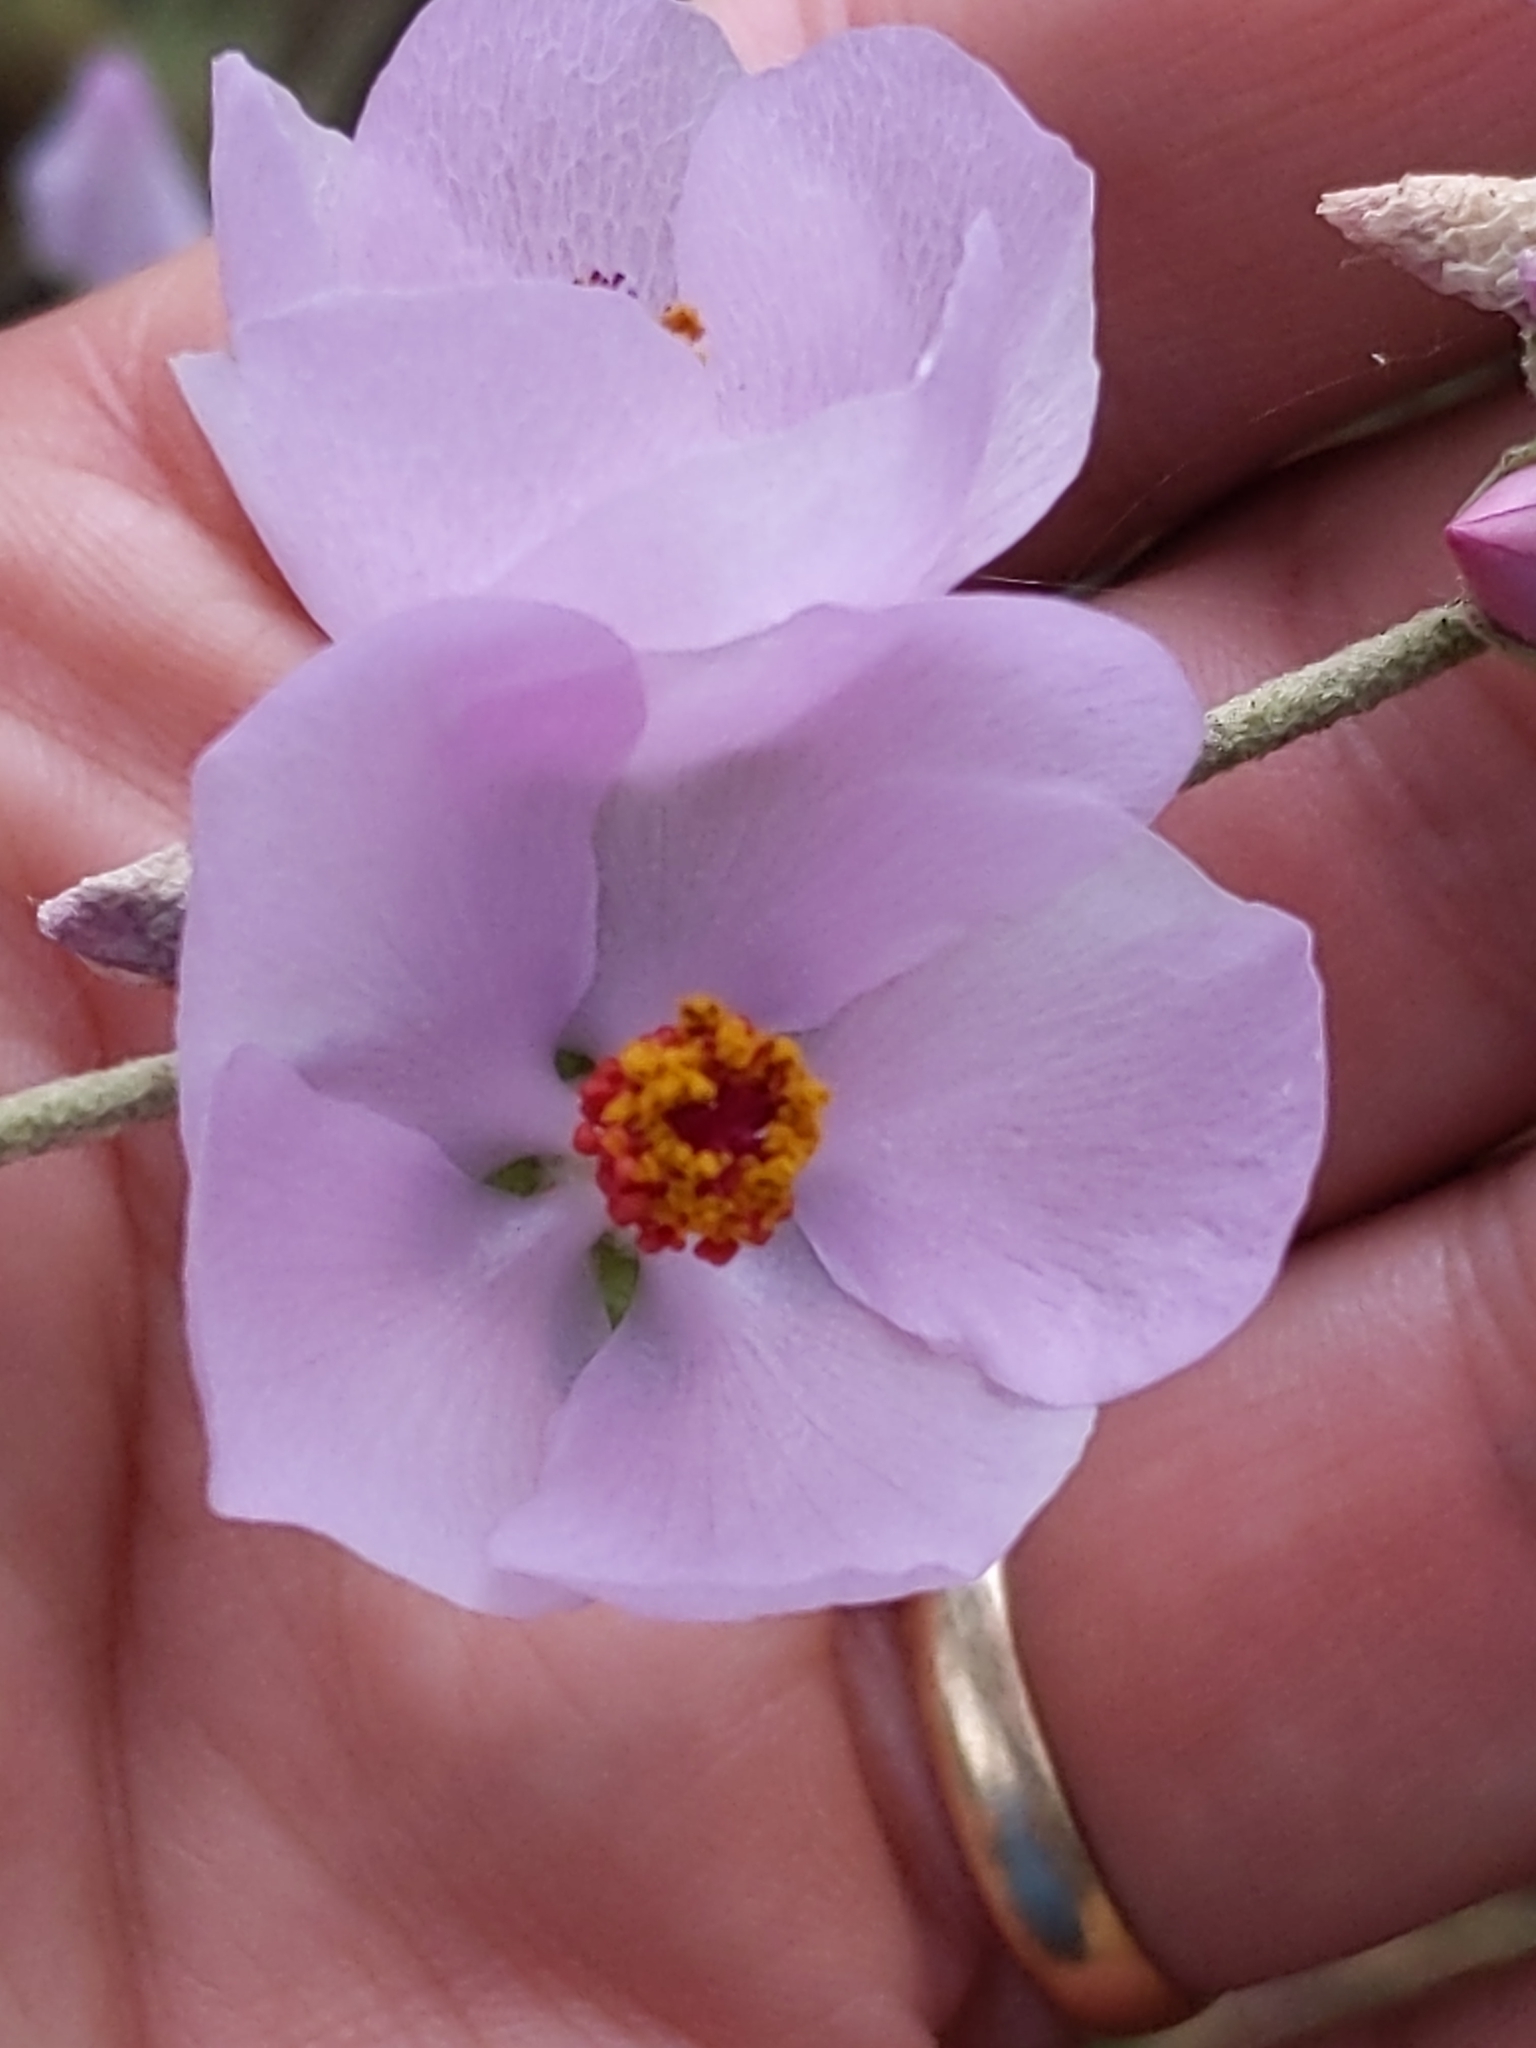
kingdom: Plantae
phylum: Tracheophyta
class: Magnoliopsida
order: Malvales
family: Malvaceae
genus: Malacothamnus
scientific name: Malacothamnus fasciculatus
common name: Sant cruz island bush-mallow
